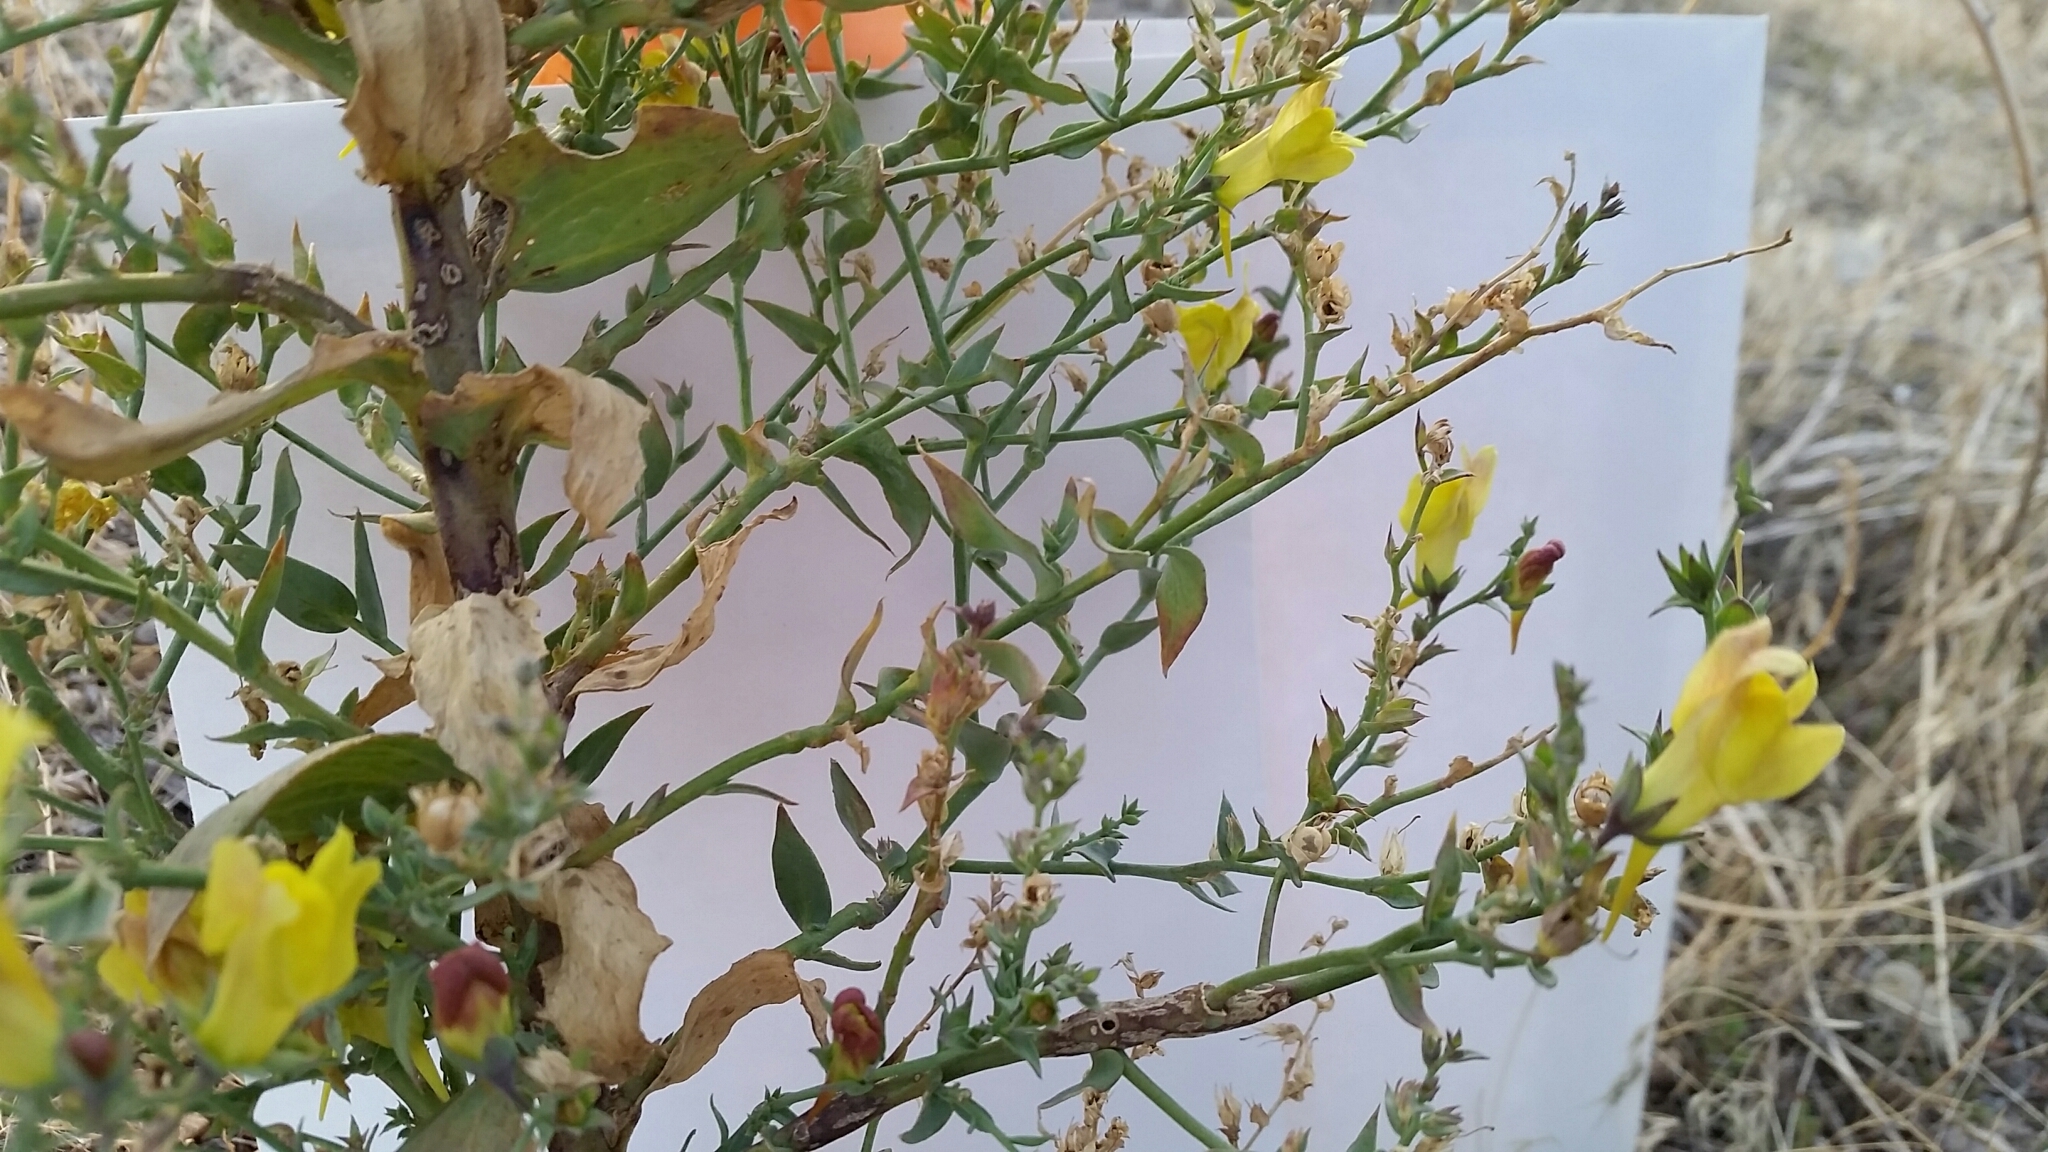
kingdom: Plantae
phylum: Tracheophyta
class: Magnoliopsida
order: Lamiales
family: Plantaginaceae
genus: Linaria
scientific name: Linaria dalmatica
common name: Dalmatian toadflax
